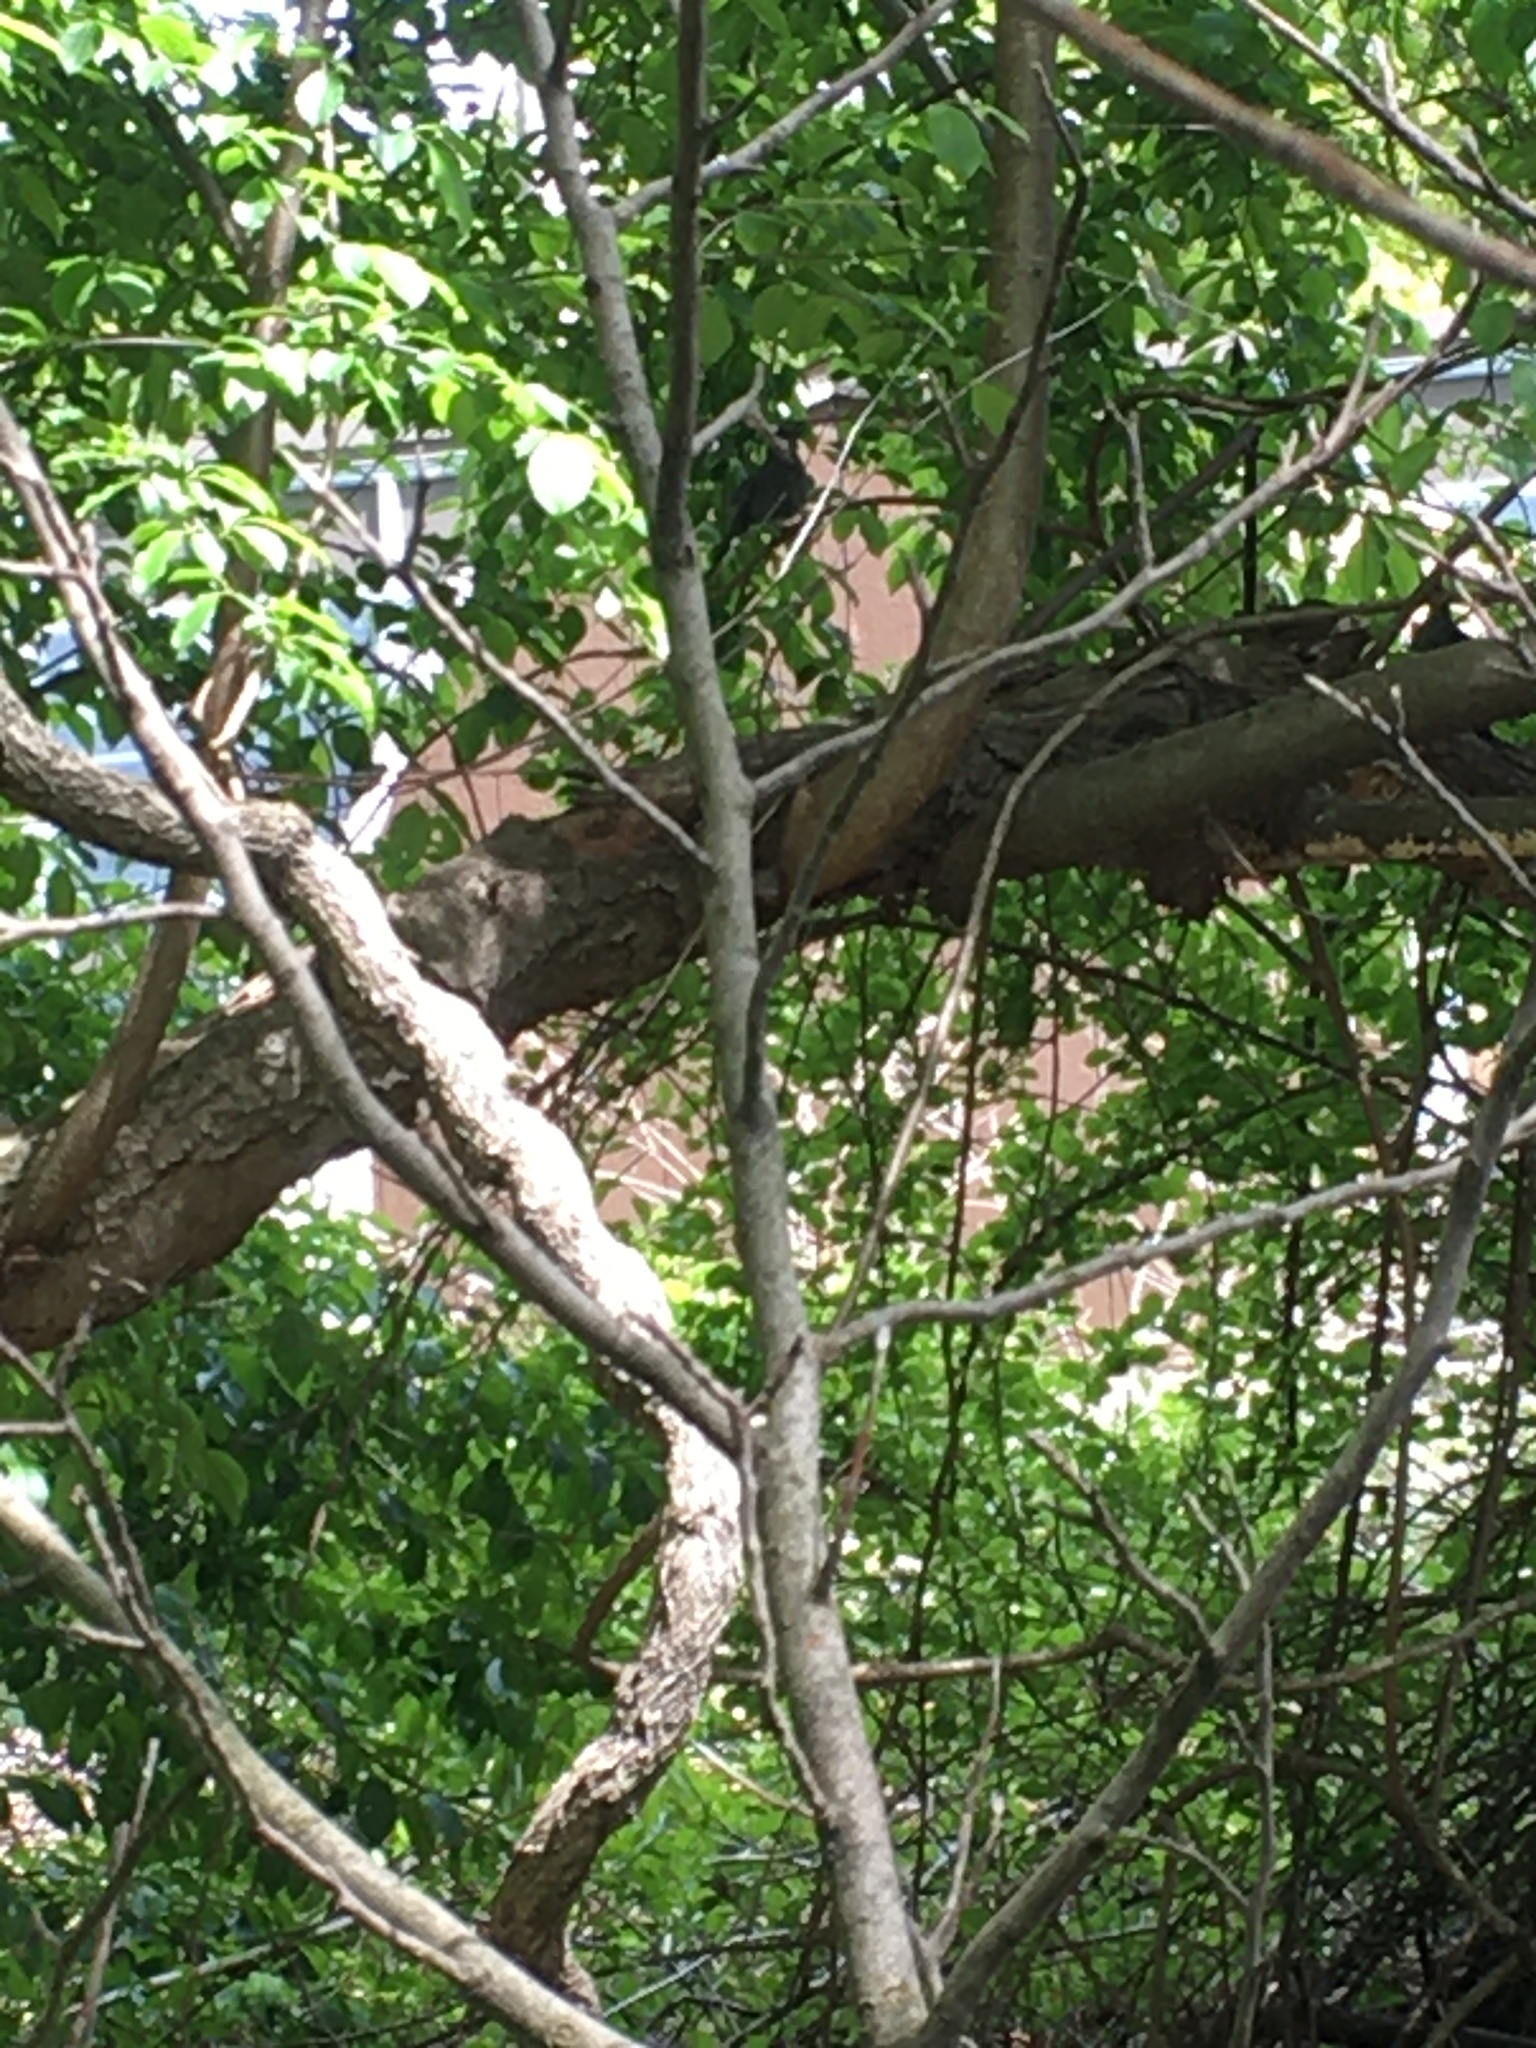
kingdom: Animalia
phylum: Chordata
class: Aves
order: Passeriformes
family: Mimidae
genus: Dumetella
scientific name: Dumetella carolinensis
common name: Gray catbird
